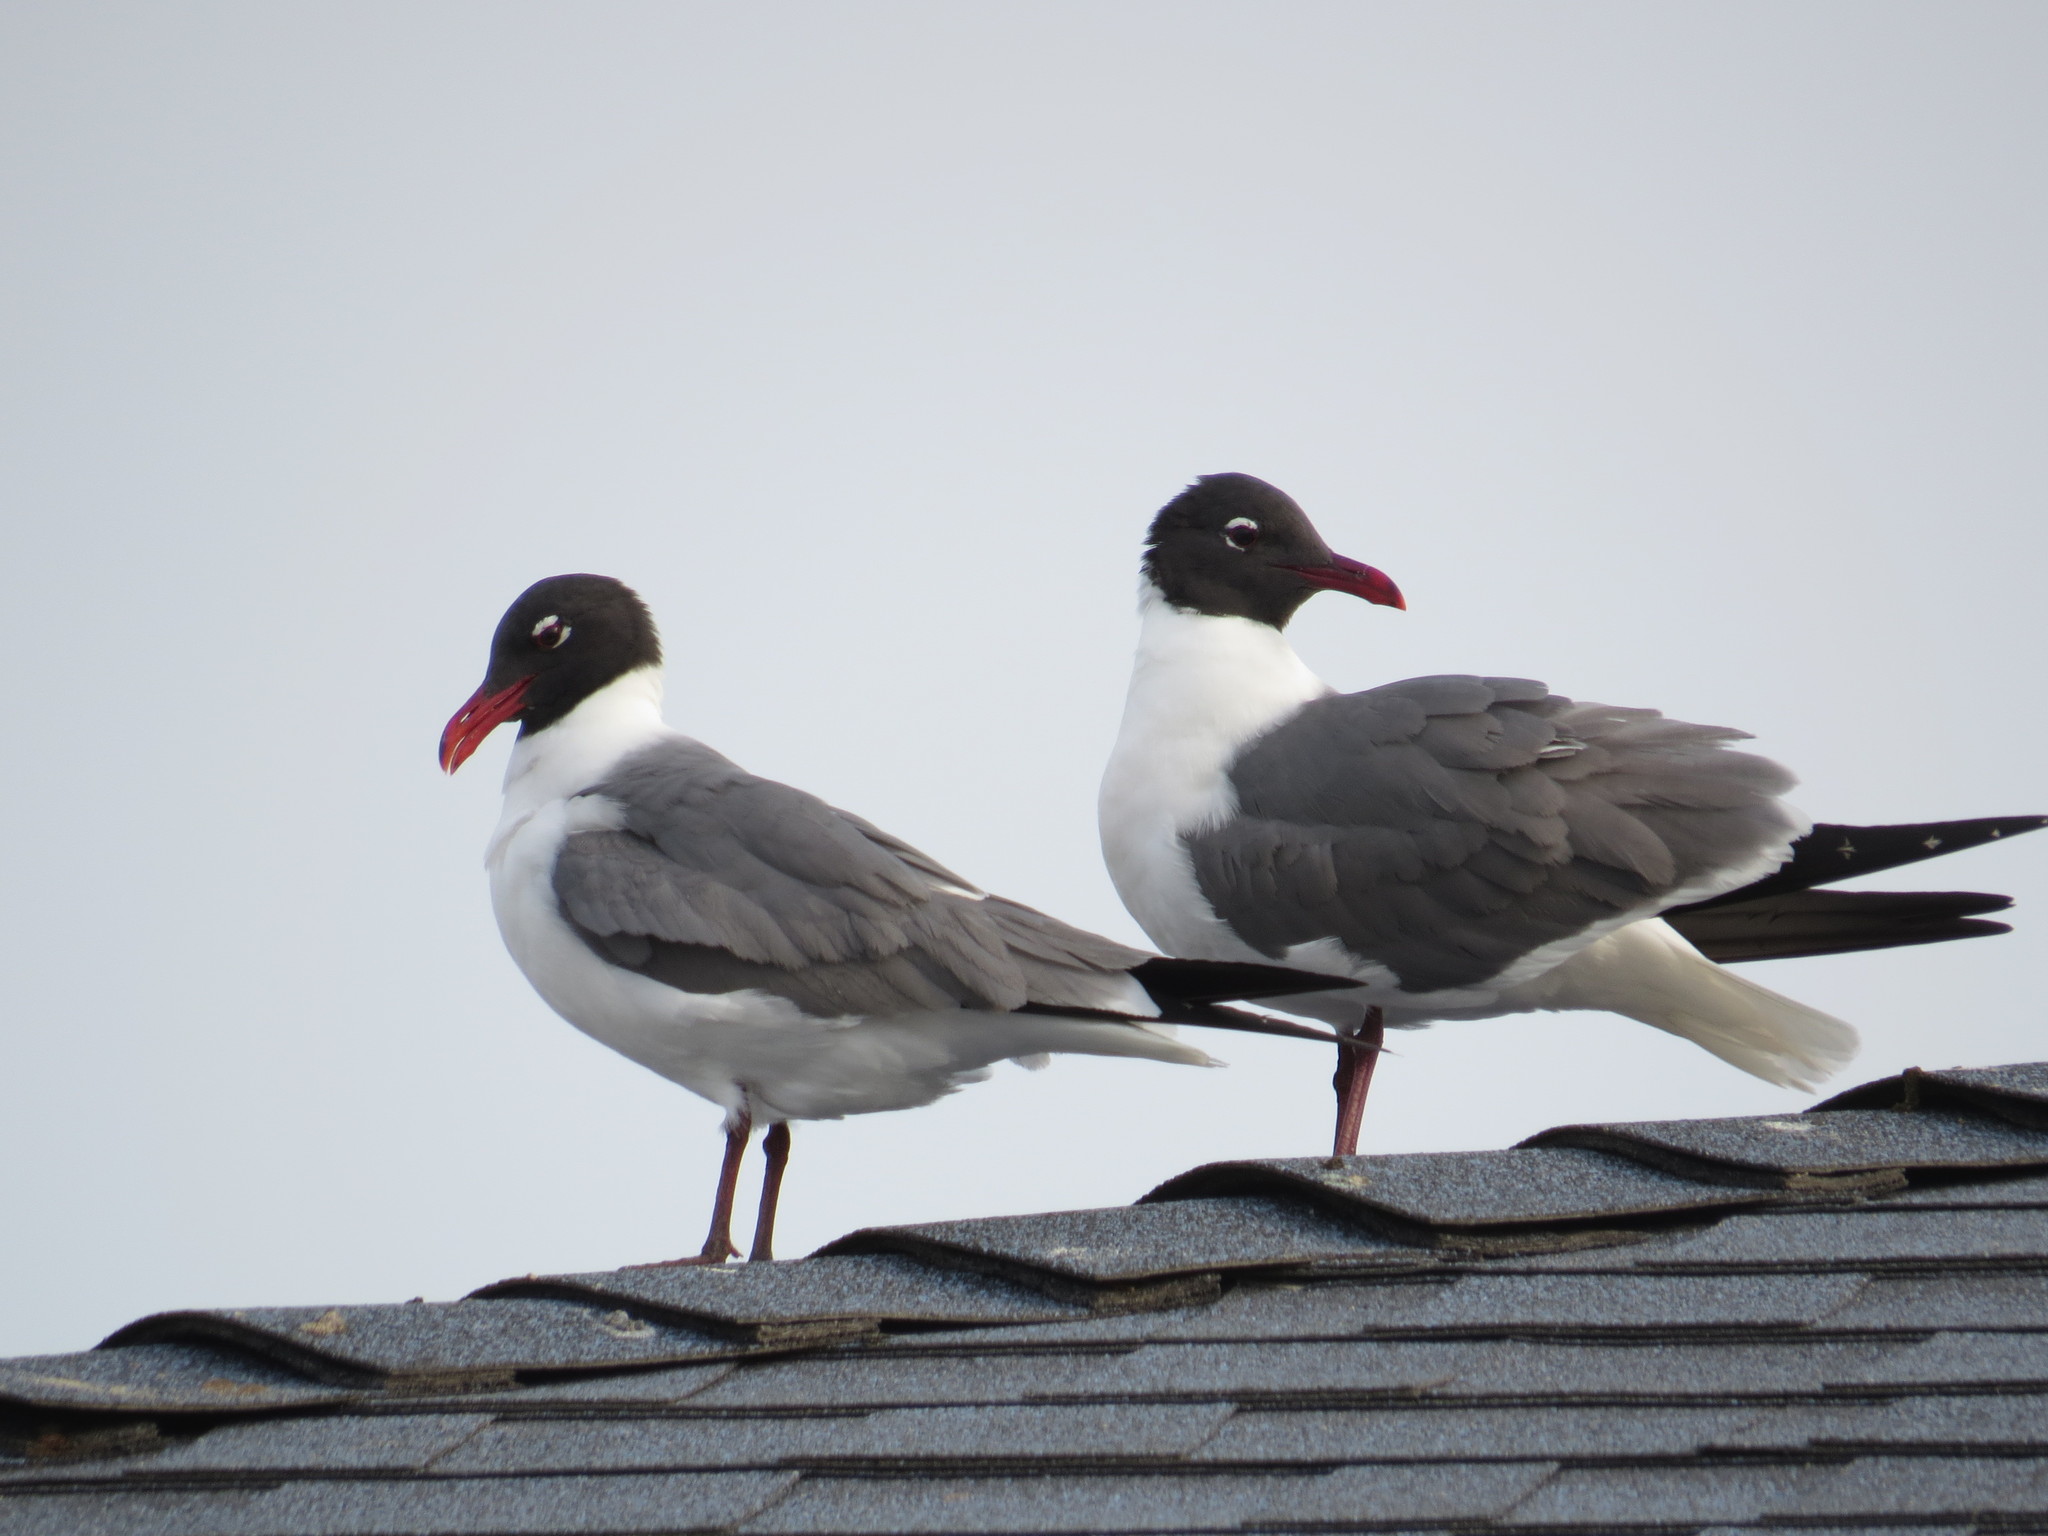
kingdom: Animalia
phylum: Chordata
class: Aves
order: Charadriiformes
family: Laridae
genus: Leucophaeus
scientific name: Leucophaeus atricilla
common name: Laughing gull
